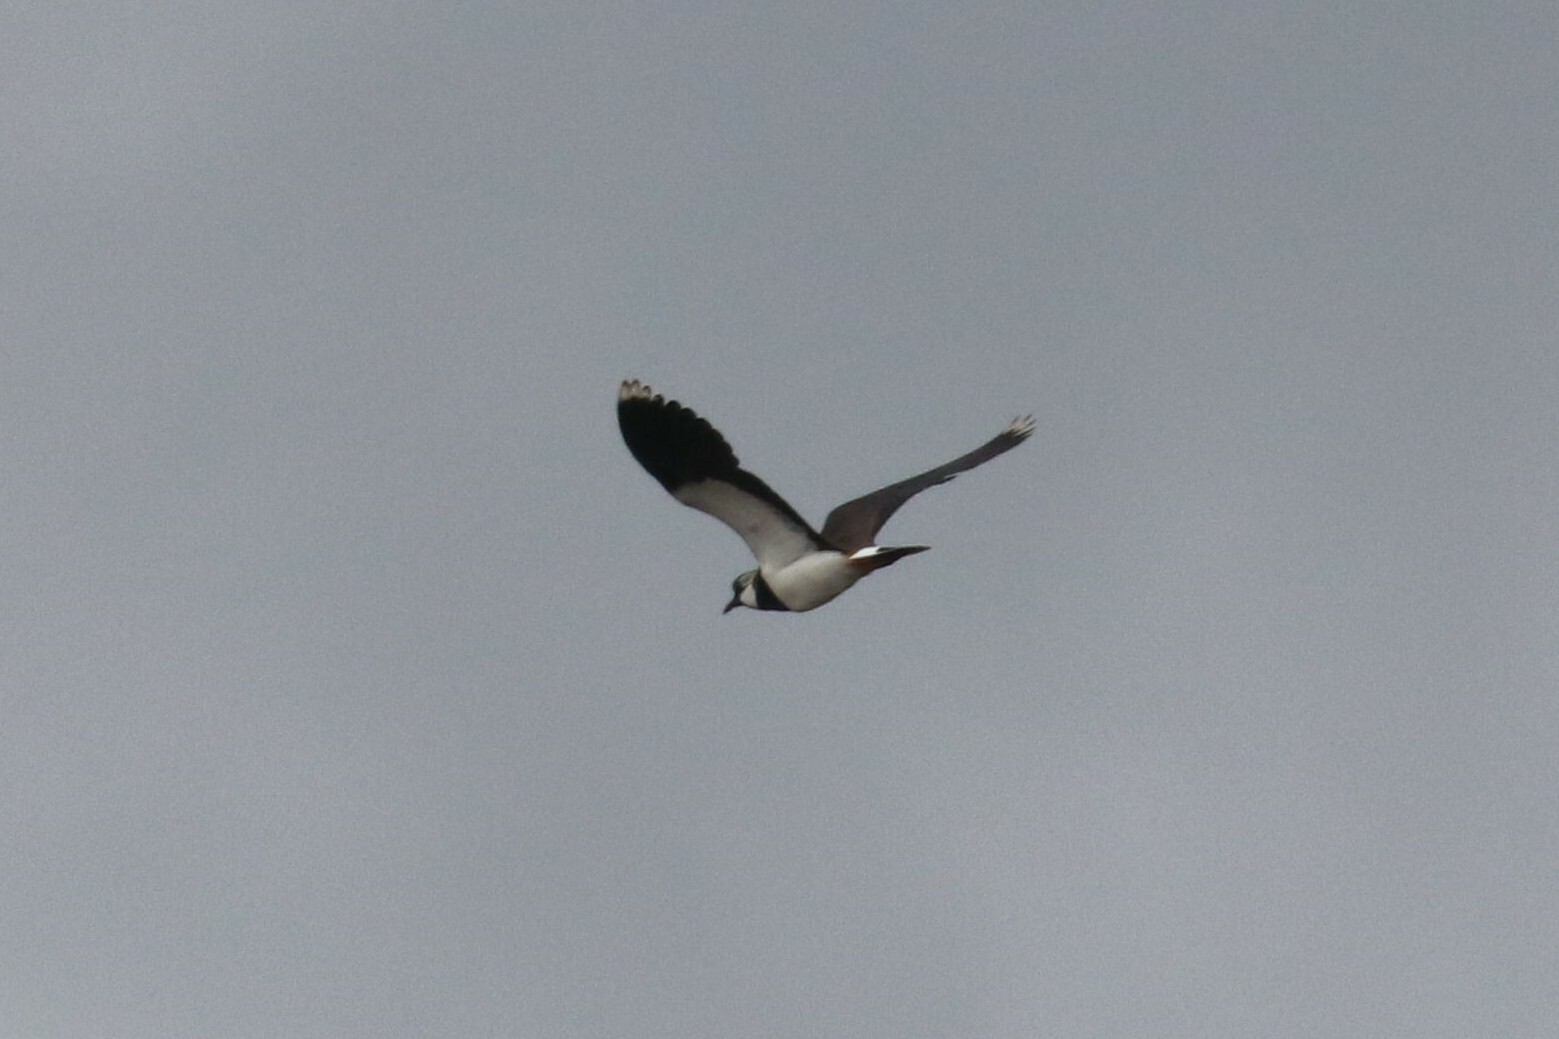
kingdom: Animalia
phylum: Chordata
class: Aves
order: Charadriiformes
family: Charadriidae
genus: Vanellus
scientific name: Vanellus vanellus
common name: Northern lapwing
